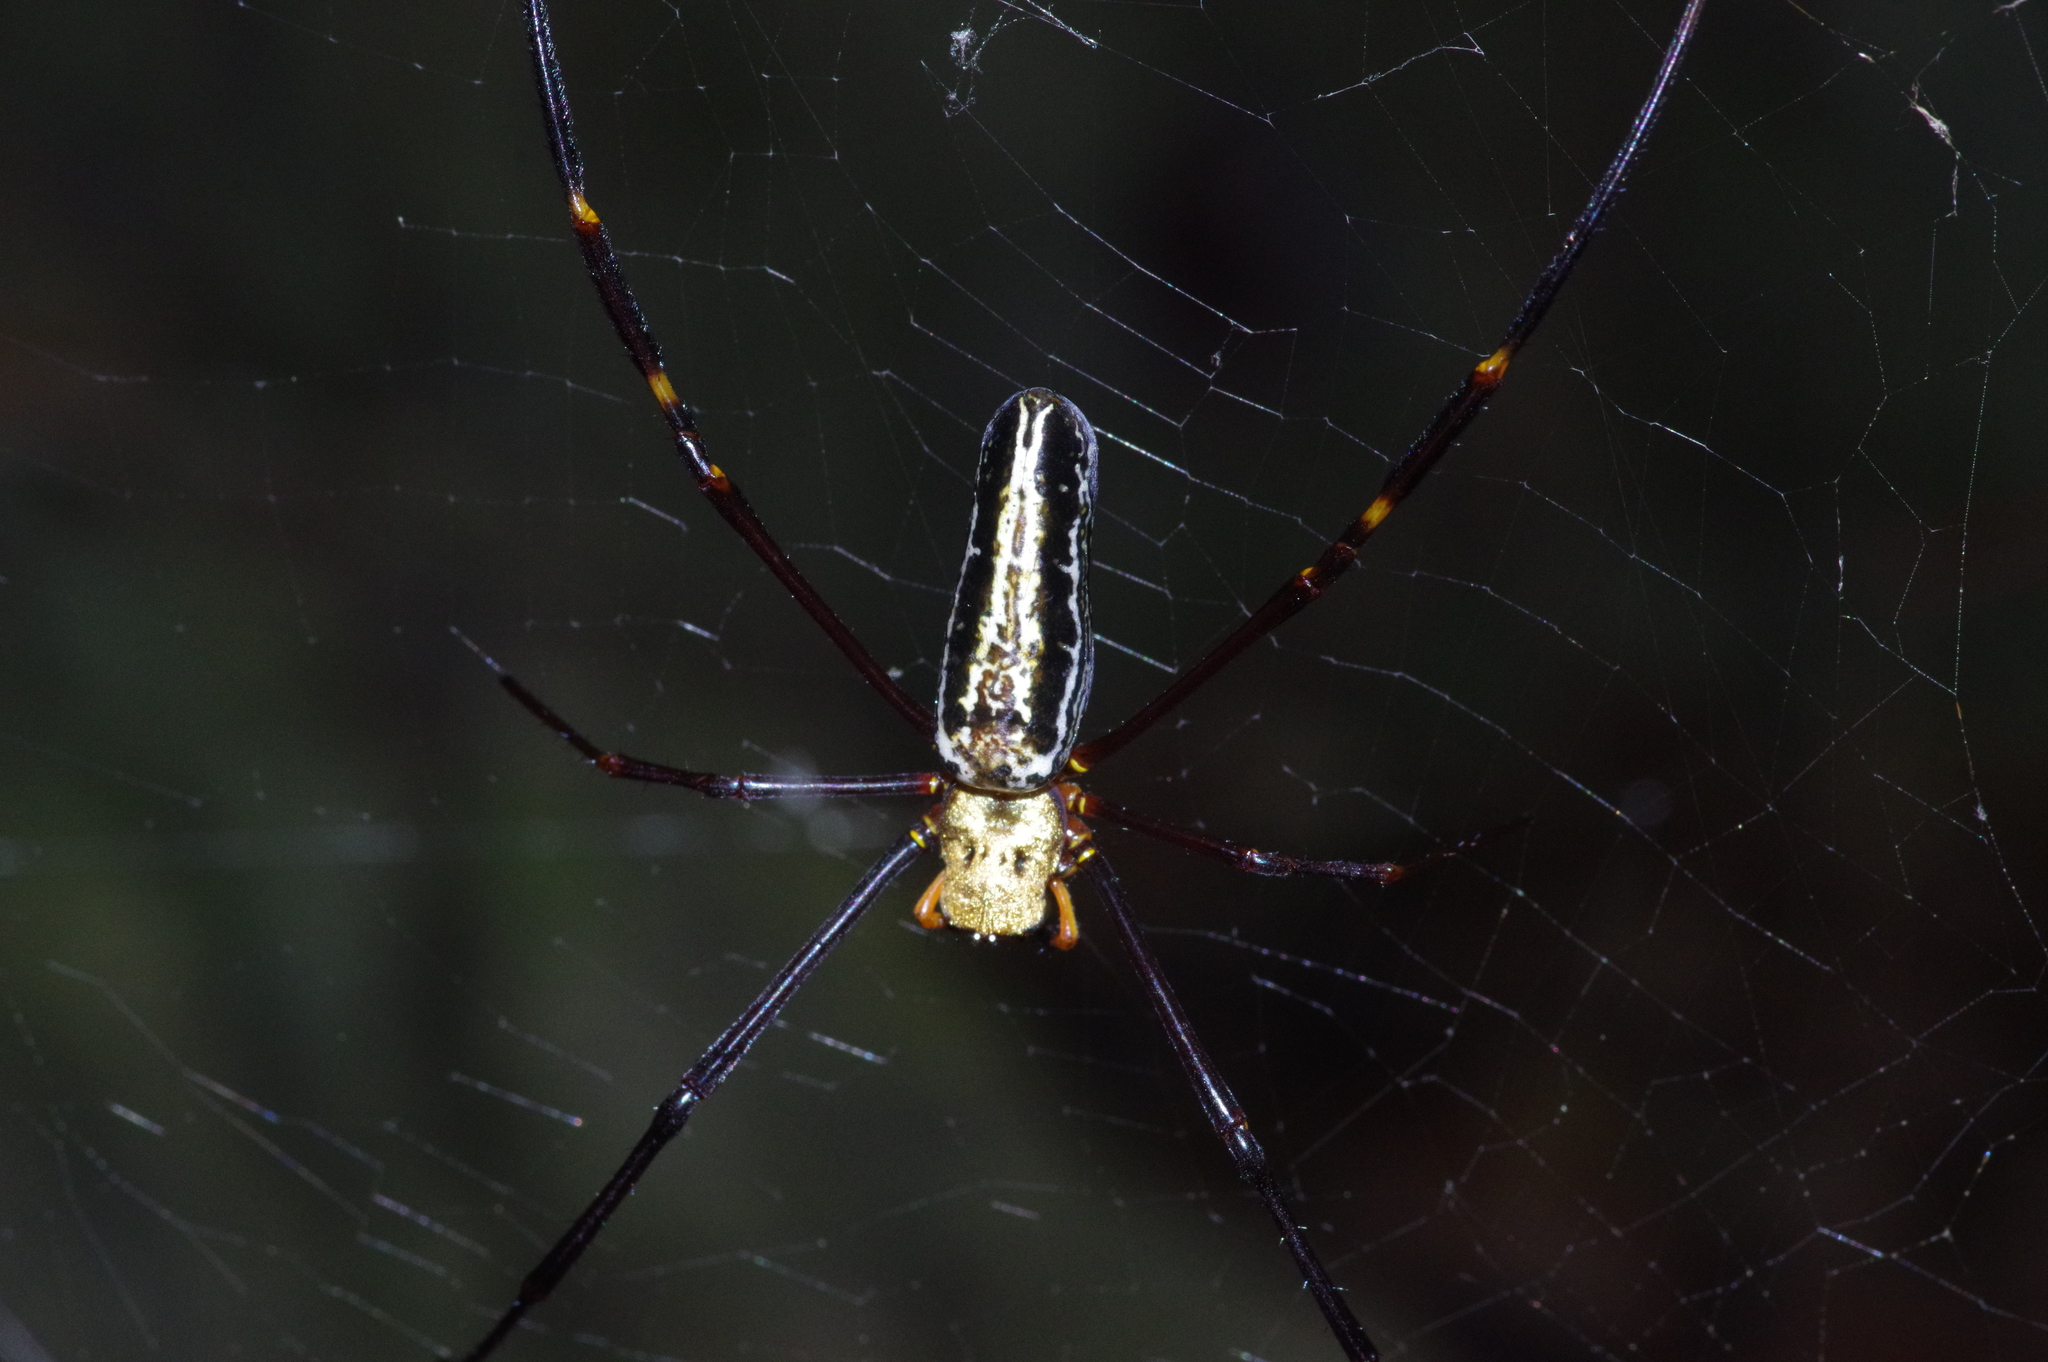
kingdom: Animalia
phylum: Arthropoda
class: Arachnida
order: Araneae
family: Araneidae
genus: Nephila
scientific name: Nephila pilipes
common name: Giant golden orb weaver
